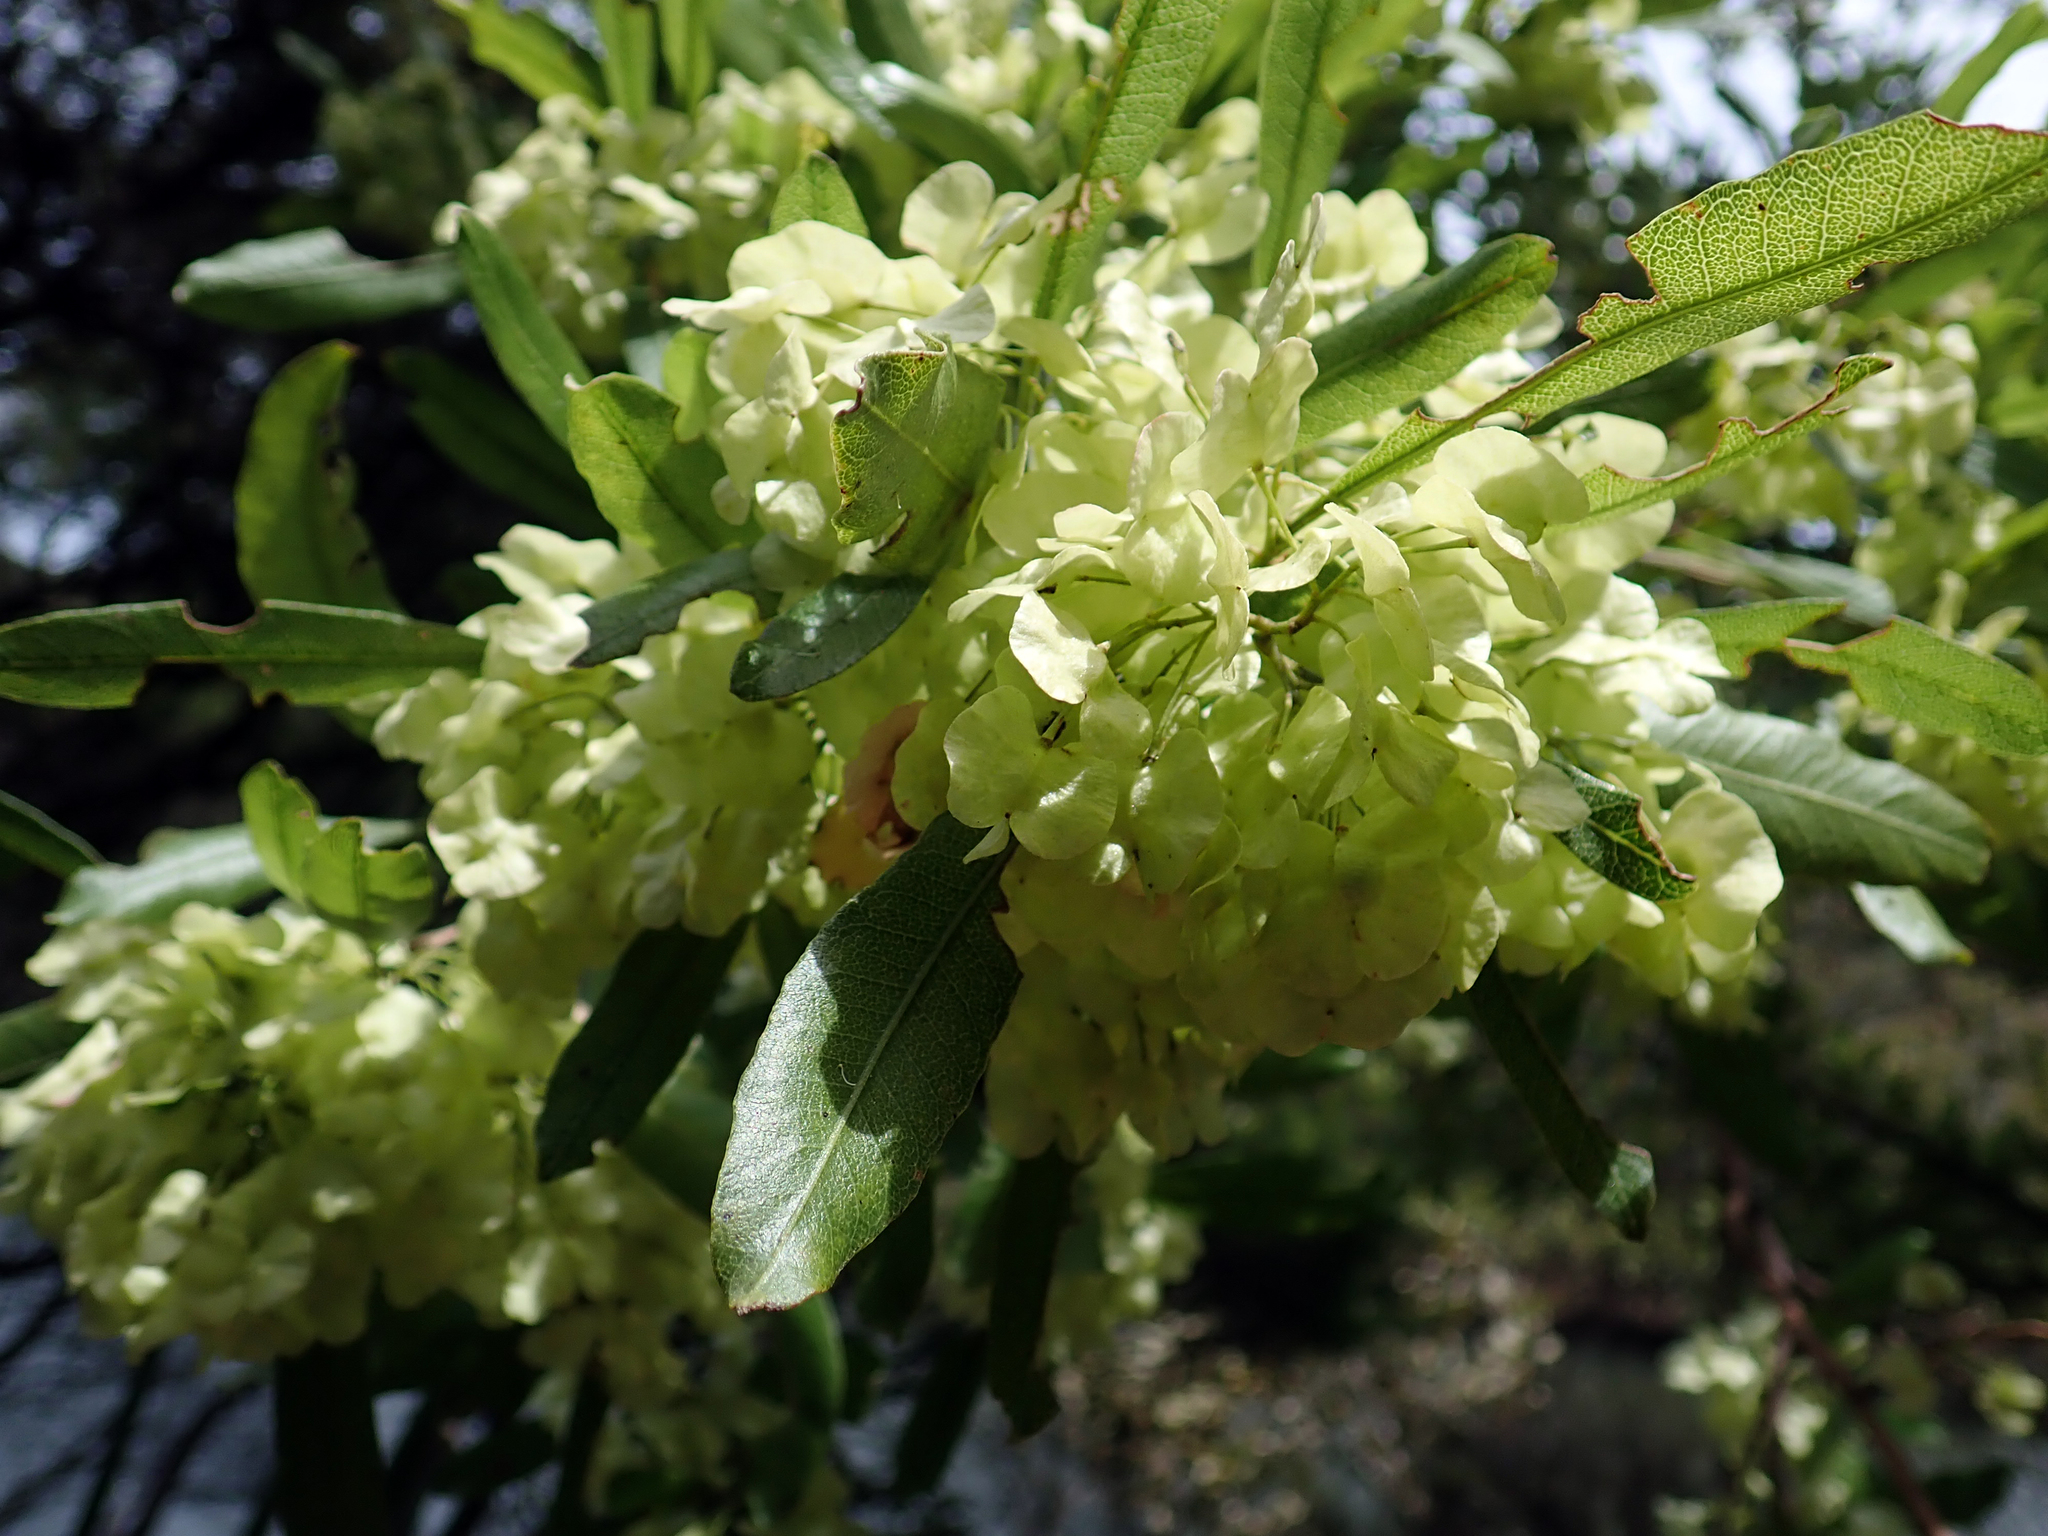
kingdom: Plantae
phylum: Tracheophyta
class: Magnoliopsida
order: Sapindales
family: Sapindaceae
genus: Dodonaea
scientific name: Dodonaea viscosa
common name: Hopbush
